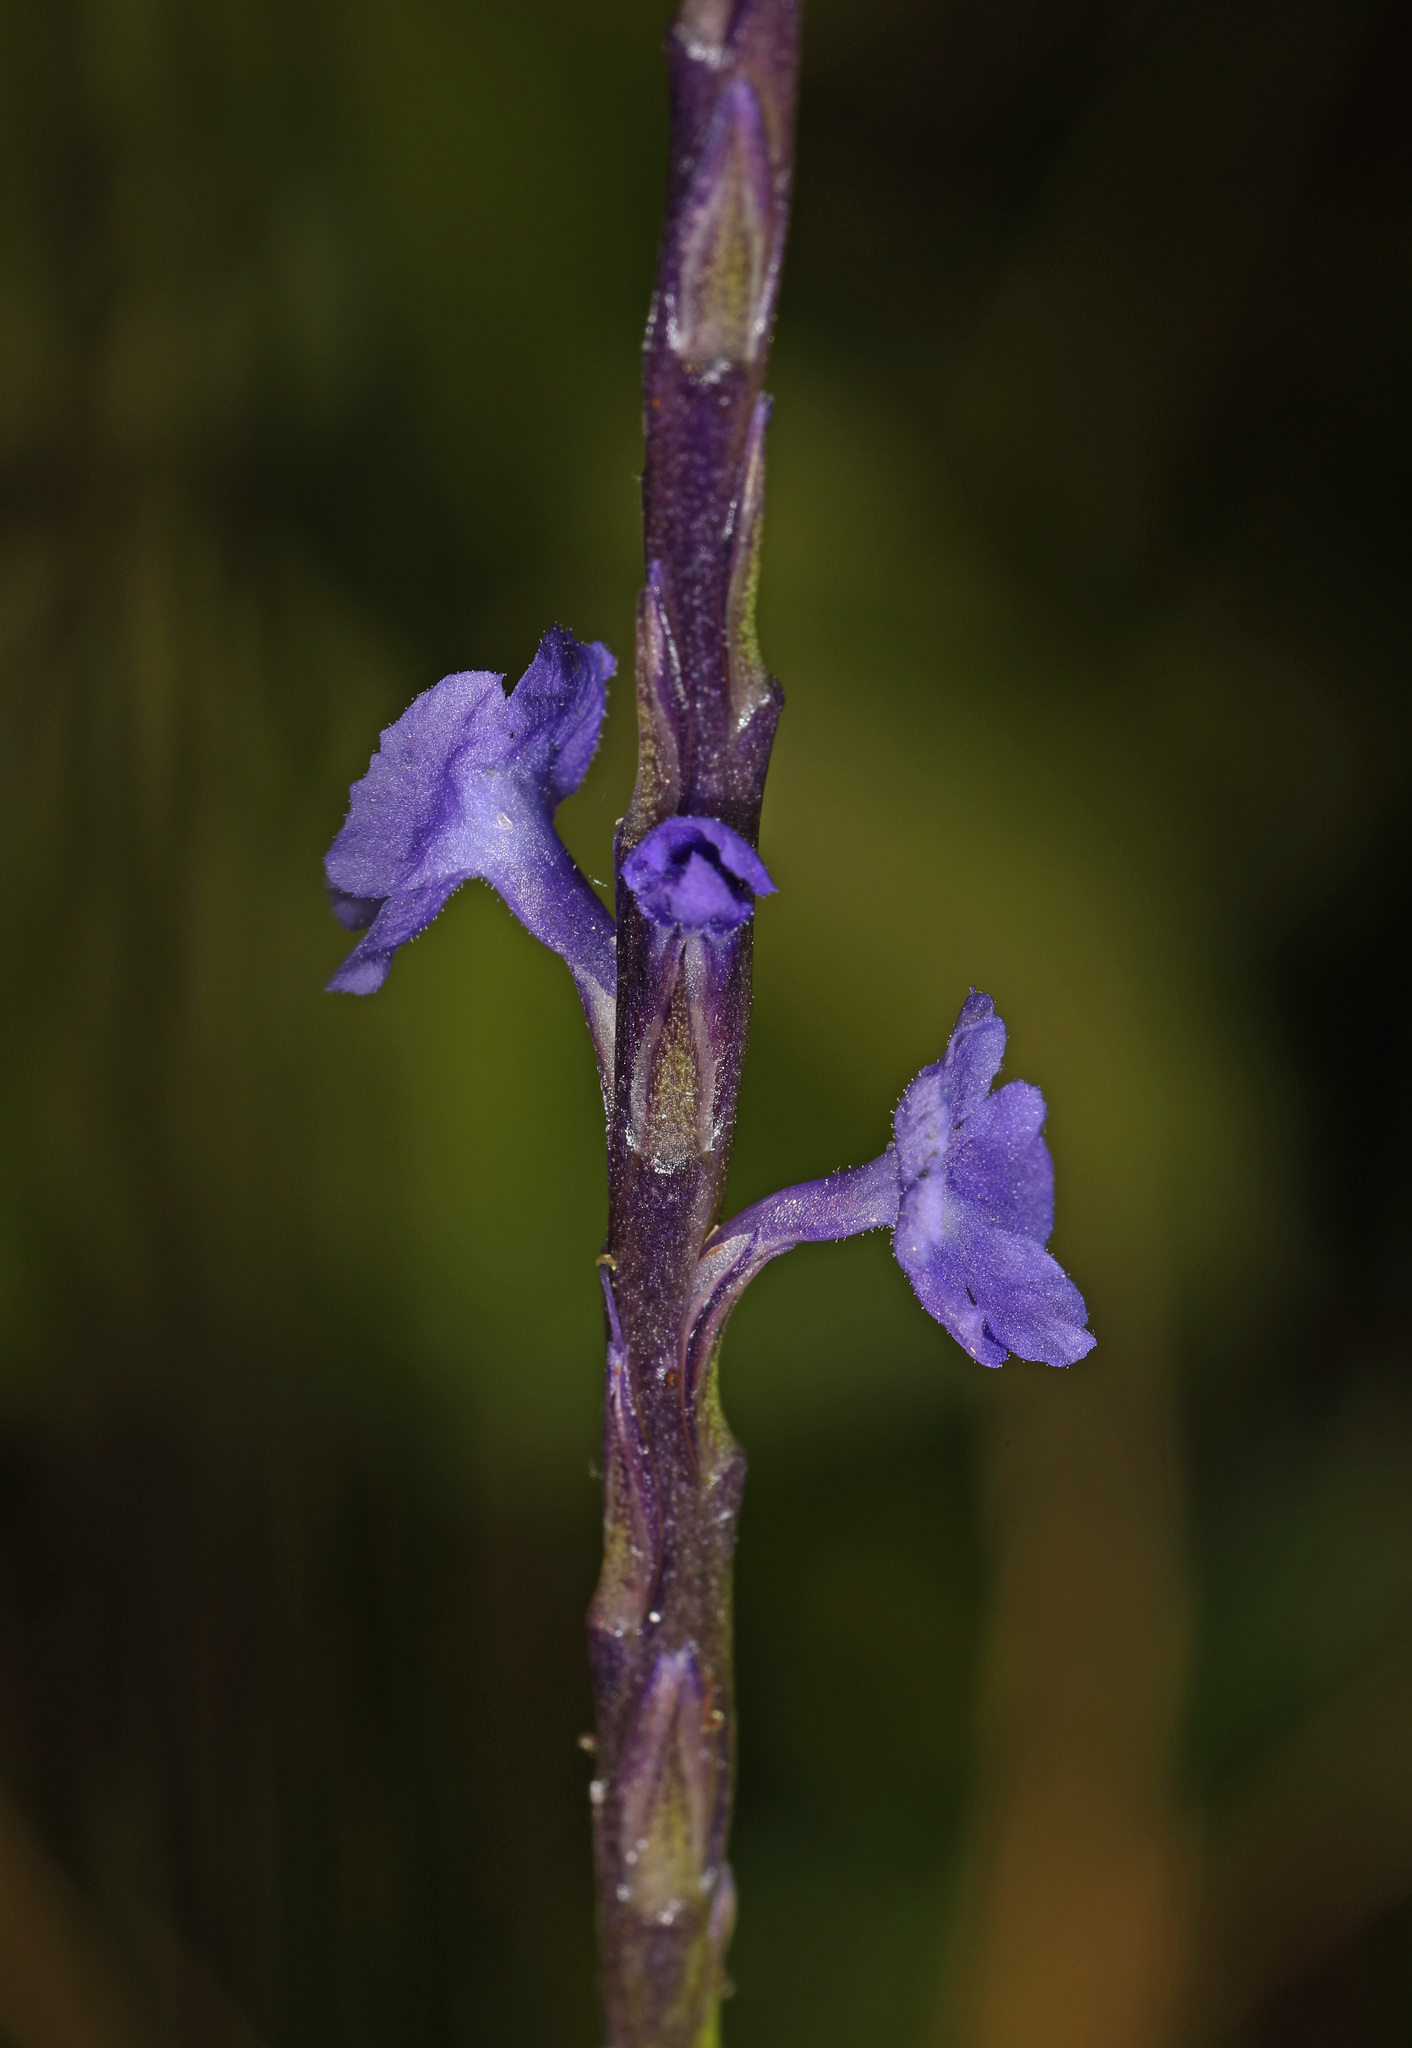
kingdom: Plantae
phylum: Tracheophyta
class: Magnoliopsida
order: Lamiales
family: Verbenaceae
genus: Stachytarpheta
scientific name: Stachytarpheta jamaicensis
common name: Light-blue snakeweed
